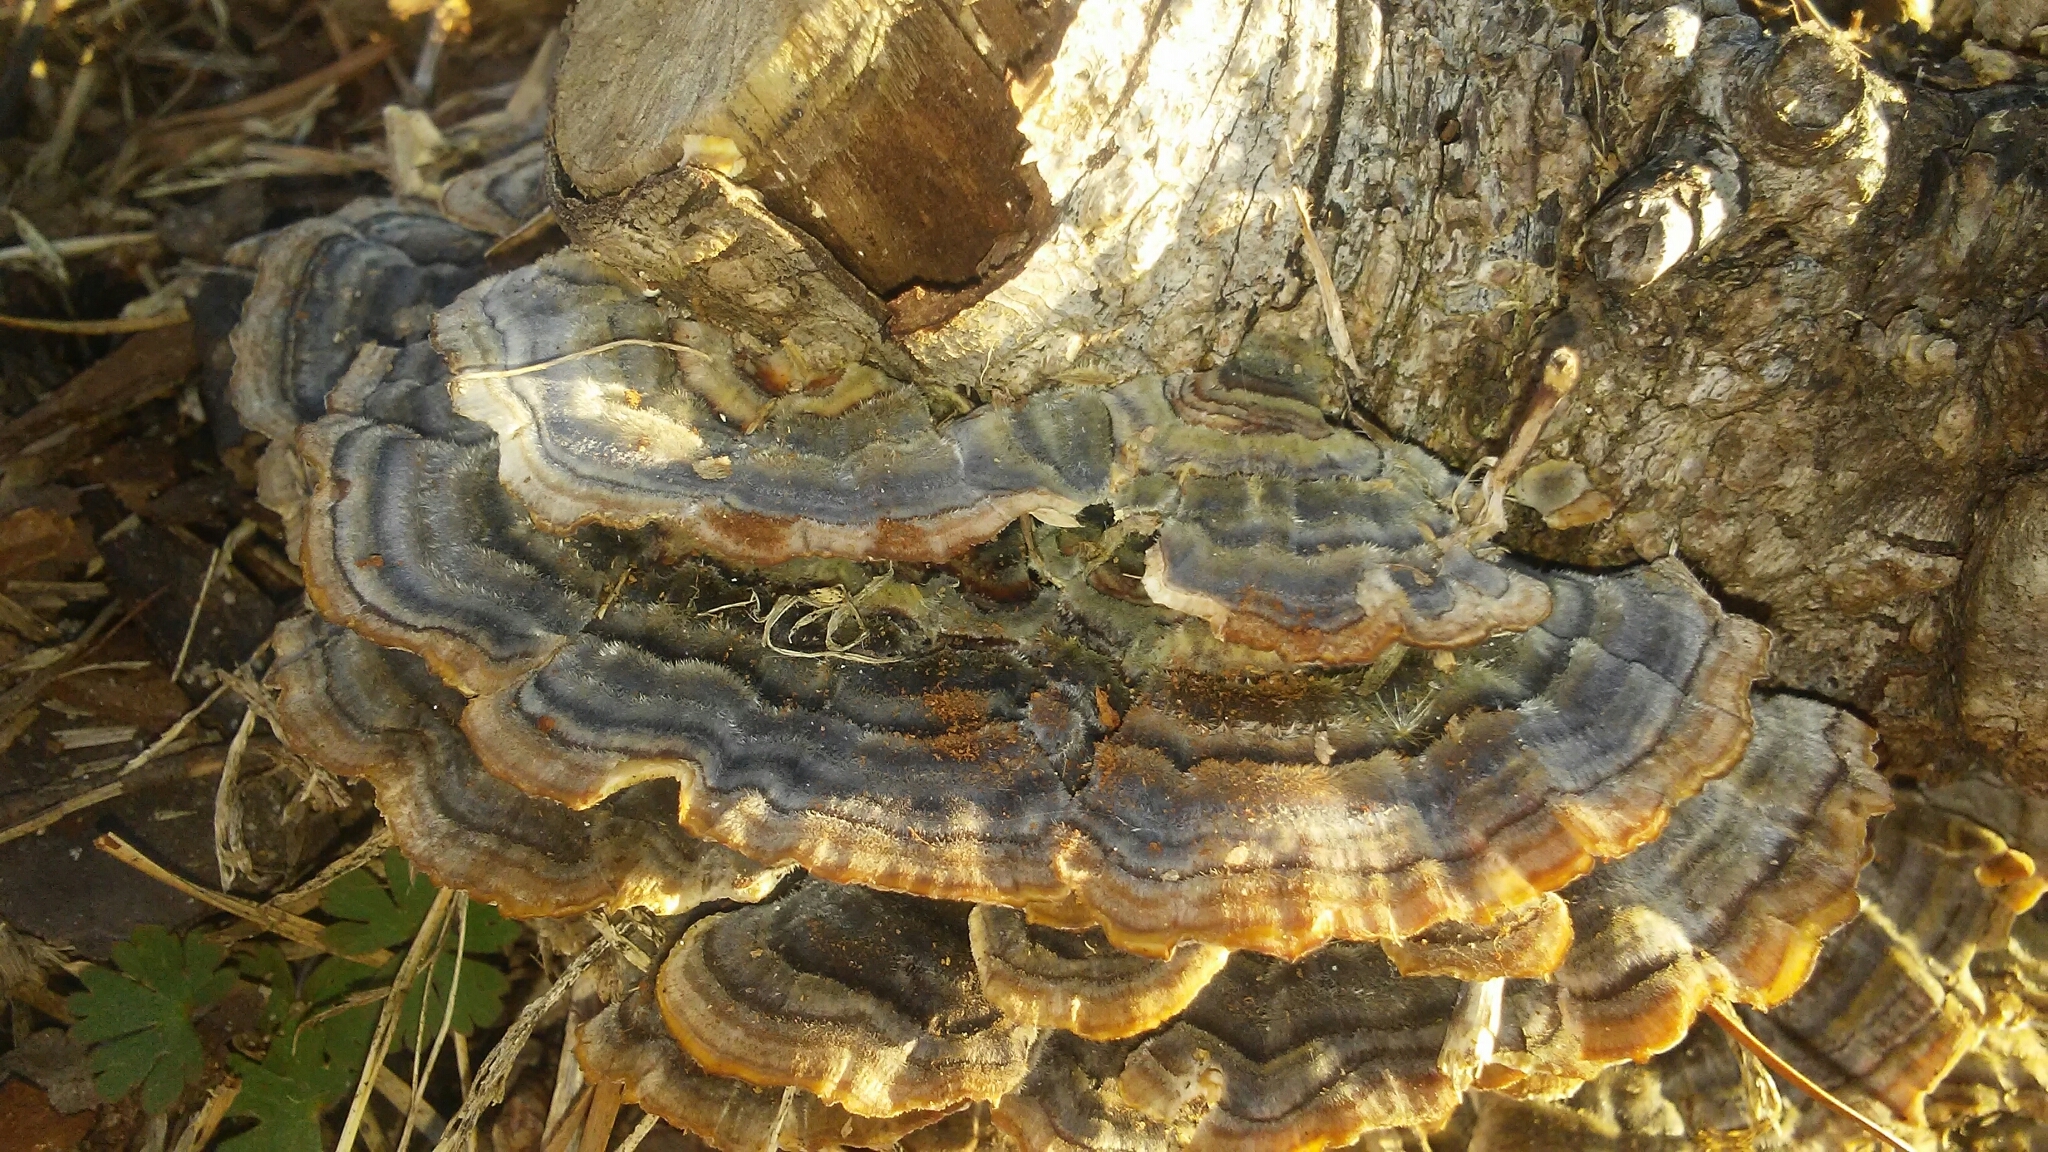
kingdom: Fungi
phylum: Basidiomycota
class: Agaricomycetes
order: Polyporales
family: Polyporaceae
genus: Trametes
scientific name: Trametes versicolor
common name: Turkeytail
